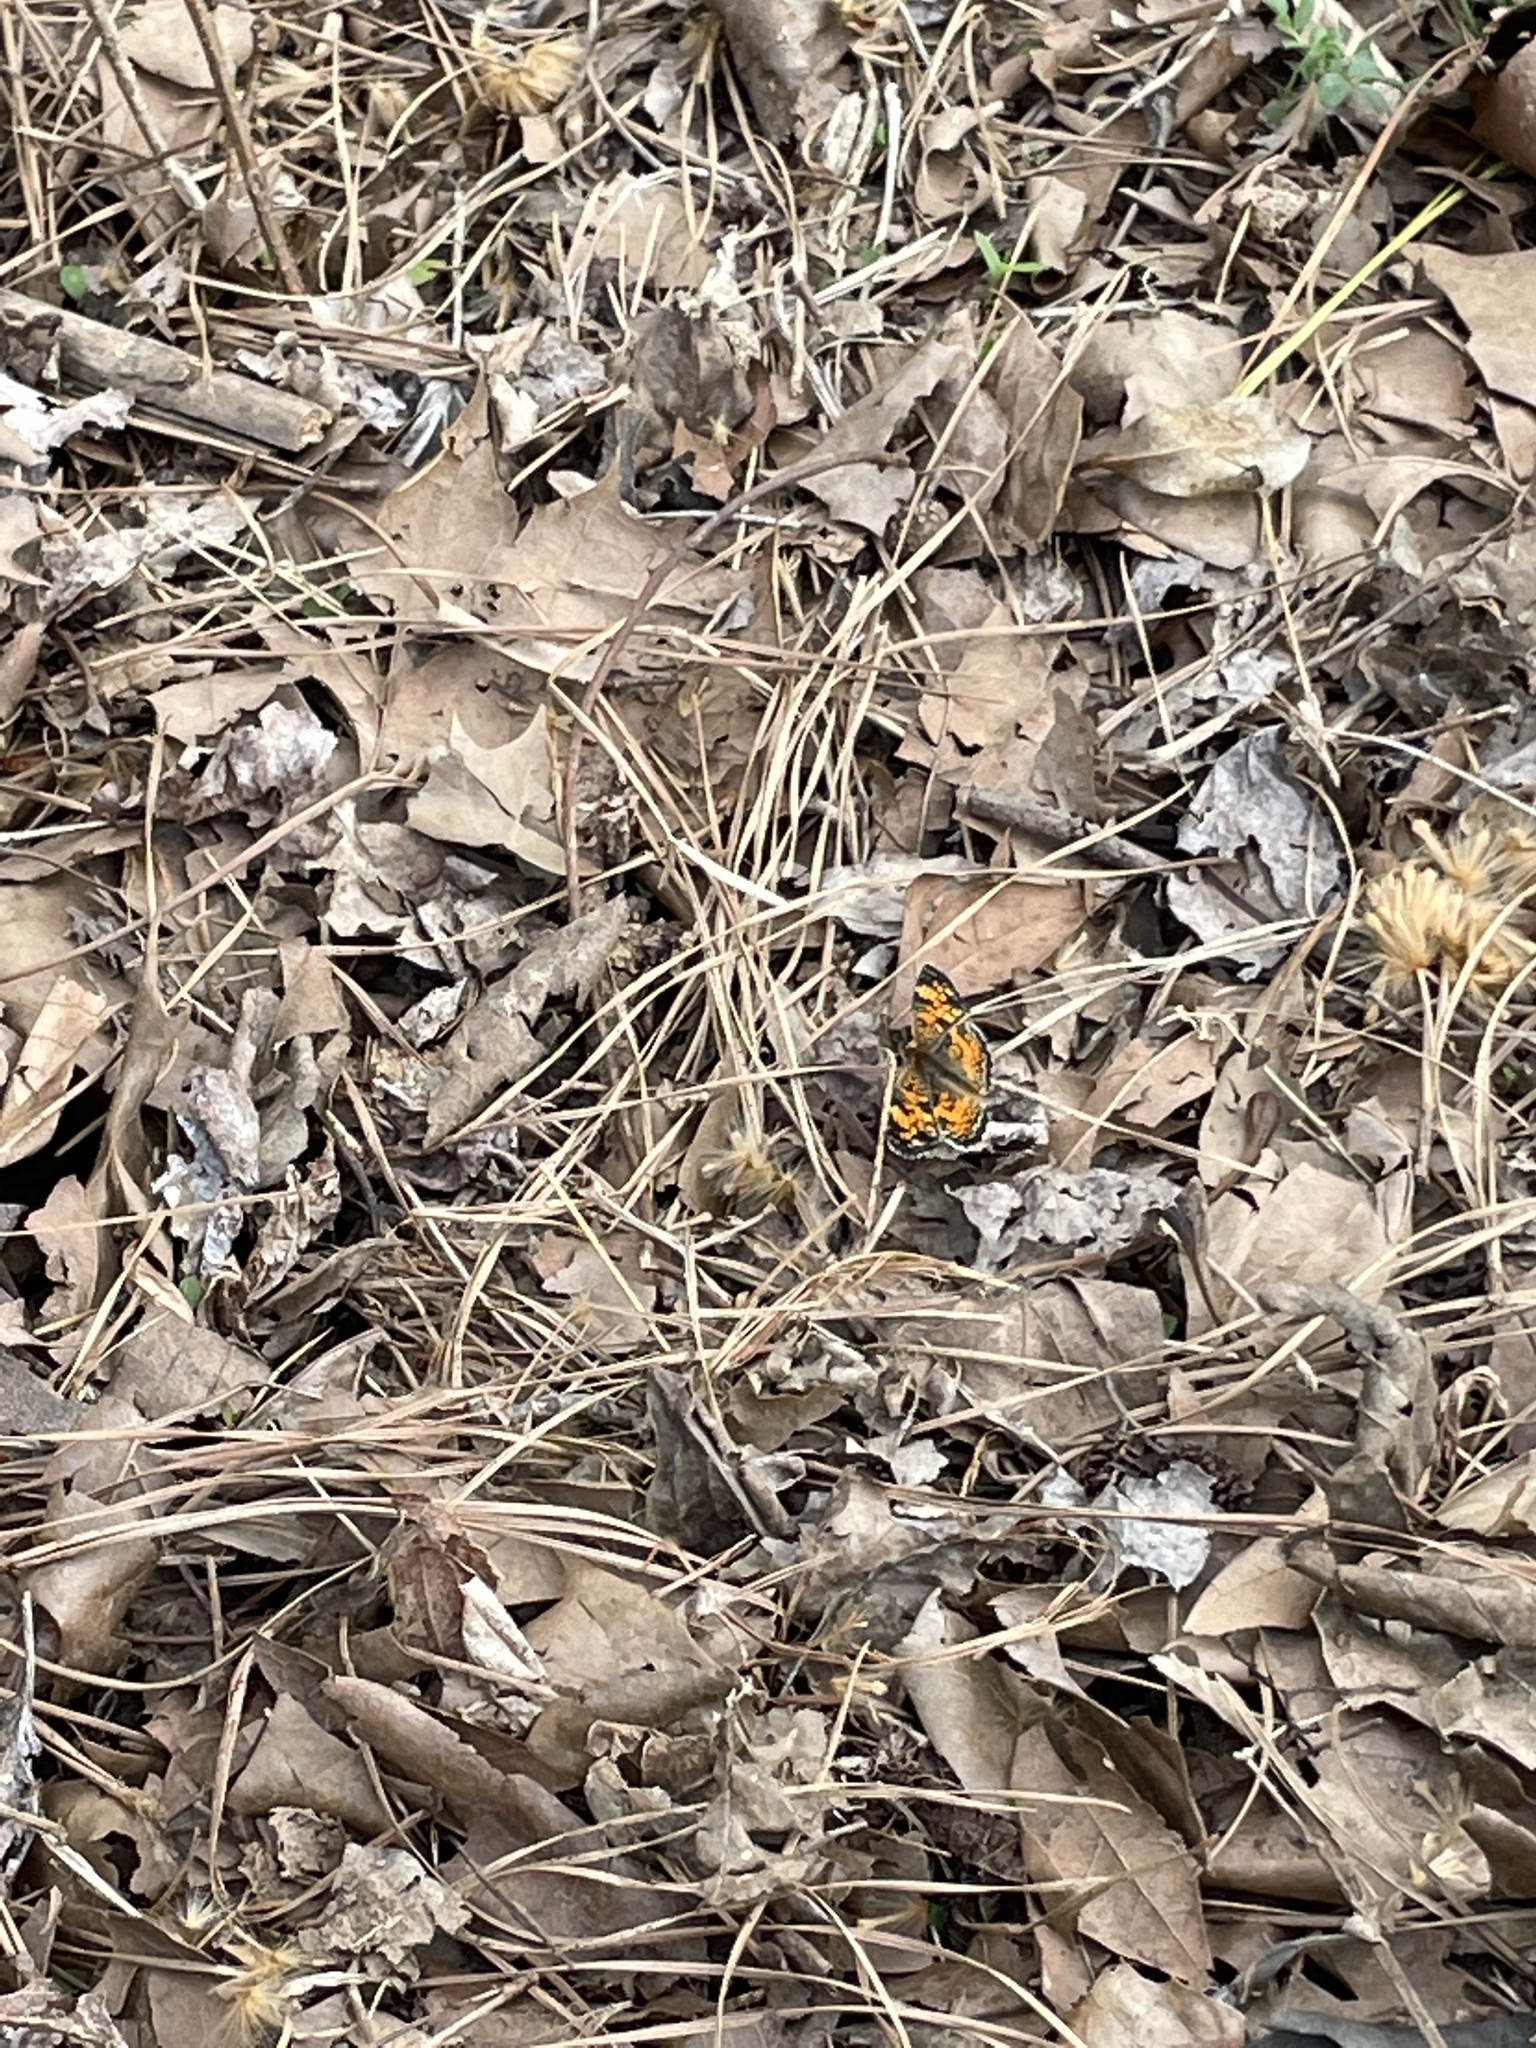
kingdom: Animalia
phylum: Arthropoda
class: Insecta
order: Lepidoptera
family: Nymphalidae
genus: Phyciodes
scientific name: Phyciodes tharos
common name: Pearl crescent
